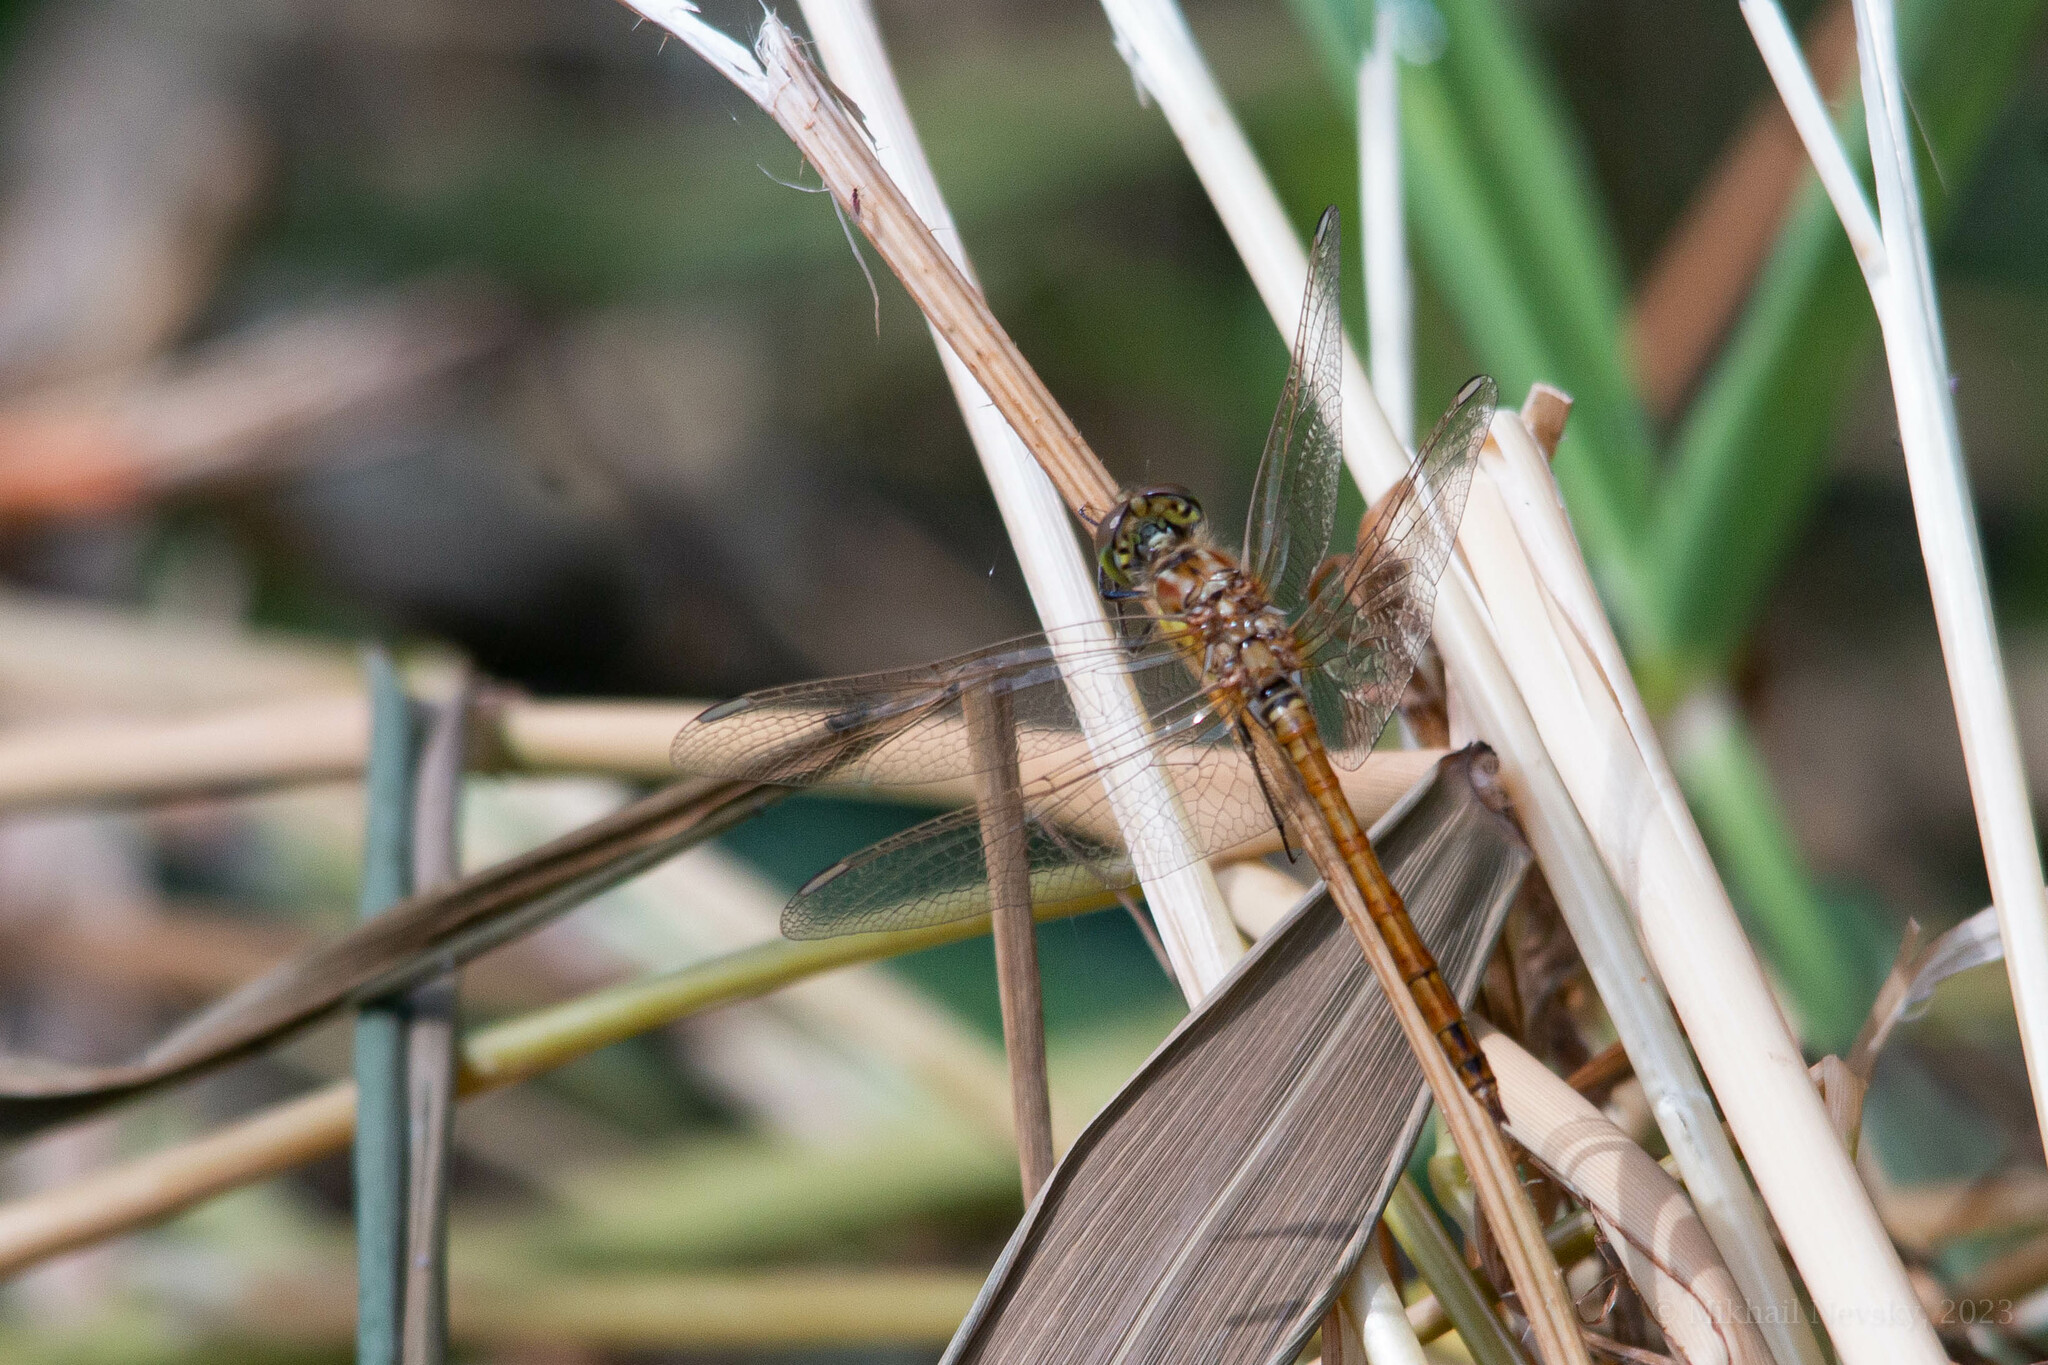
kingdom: Animalia
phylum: Arthropoda
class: Insecta
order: Odonata
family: Libellulidae
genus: Sympetrum
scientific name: Sympetrum vulgatum
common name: Vagrant darter
